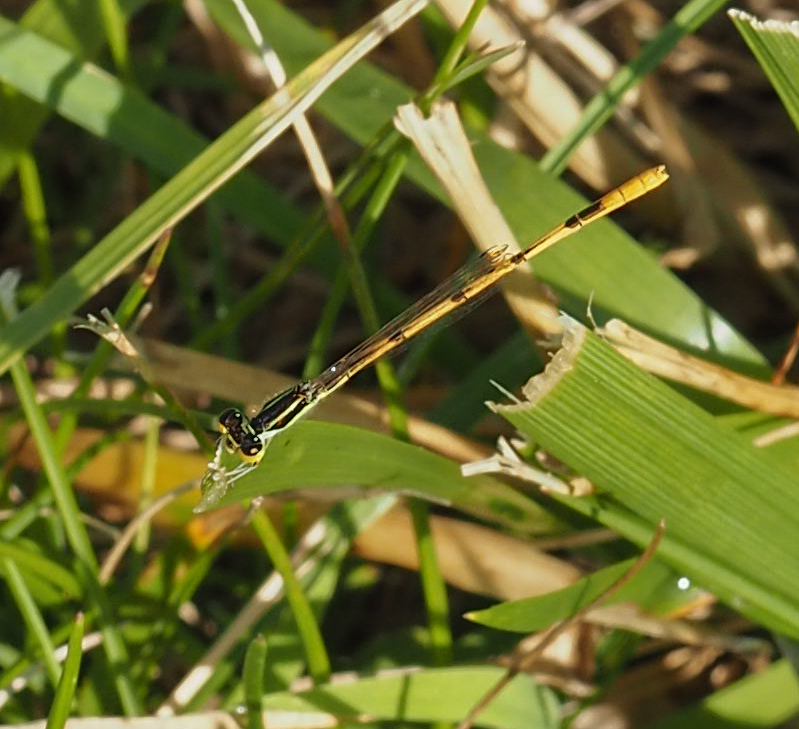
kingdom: Animalia
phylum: Arthropoda
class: Insecta
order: Odonata
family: Coenagrionidae
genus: Ischnura
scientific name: Ischnura hastata
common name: Citrine forktail
